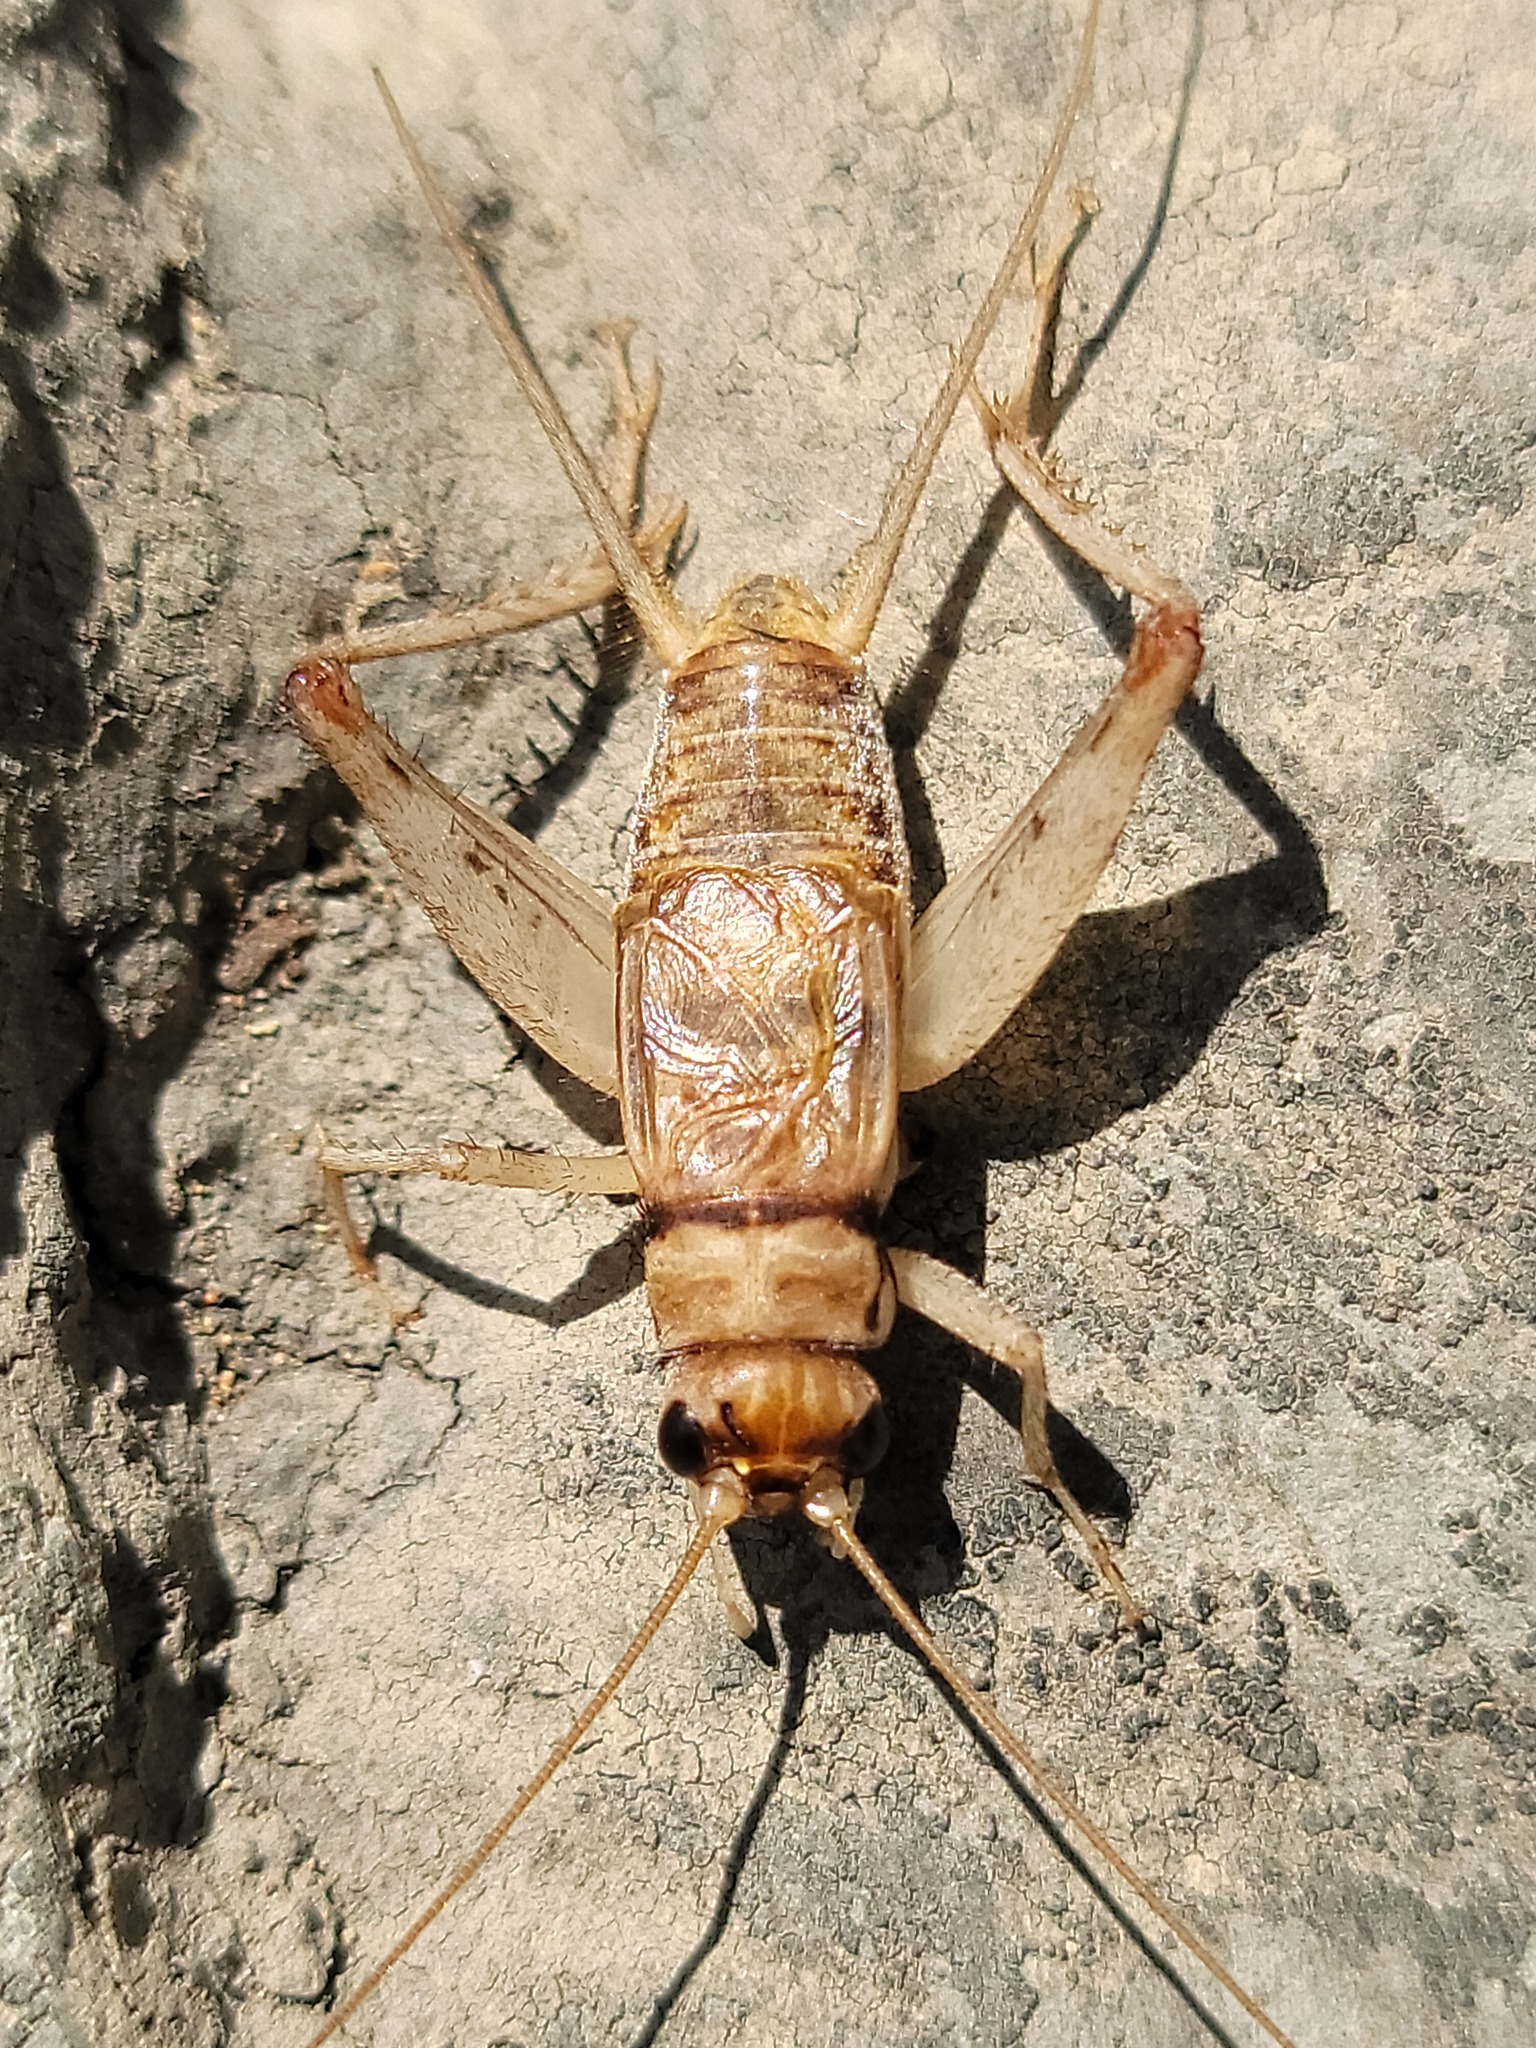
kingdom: Animalia
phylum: Arthropoda
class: Insecta
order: Orthoptera
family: Gryllidae
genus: Gryllodes
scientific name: Gryllodes sigillatus
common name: Tropical house cricket
